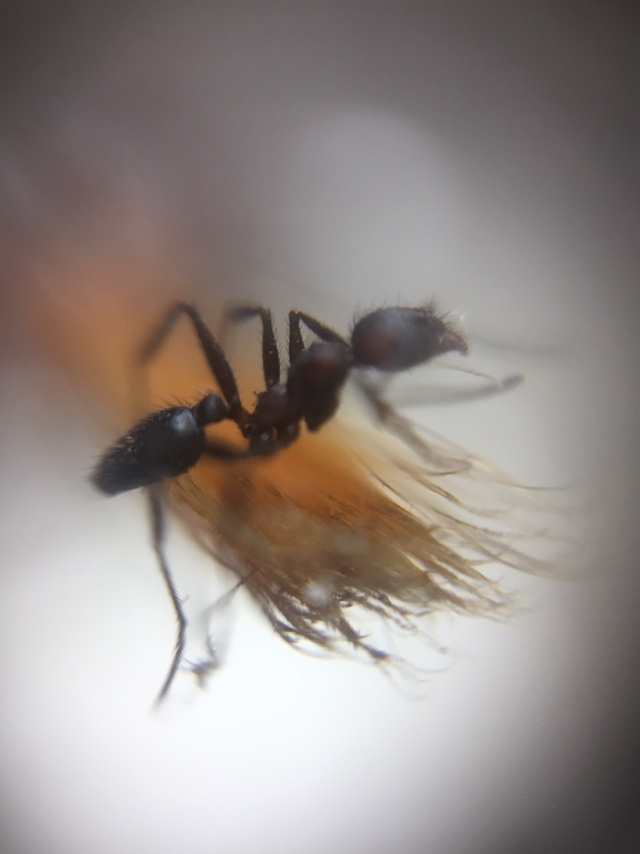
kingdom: Animalia
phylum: Arthropoda
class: Insecta
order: Hymenoptera
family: Formicidae
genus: Pheidole
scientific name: Pheidole sharpi
